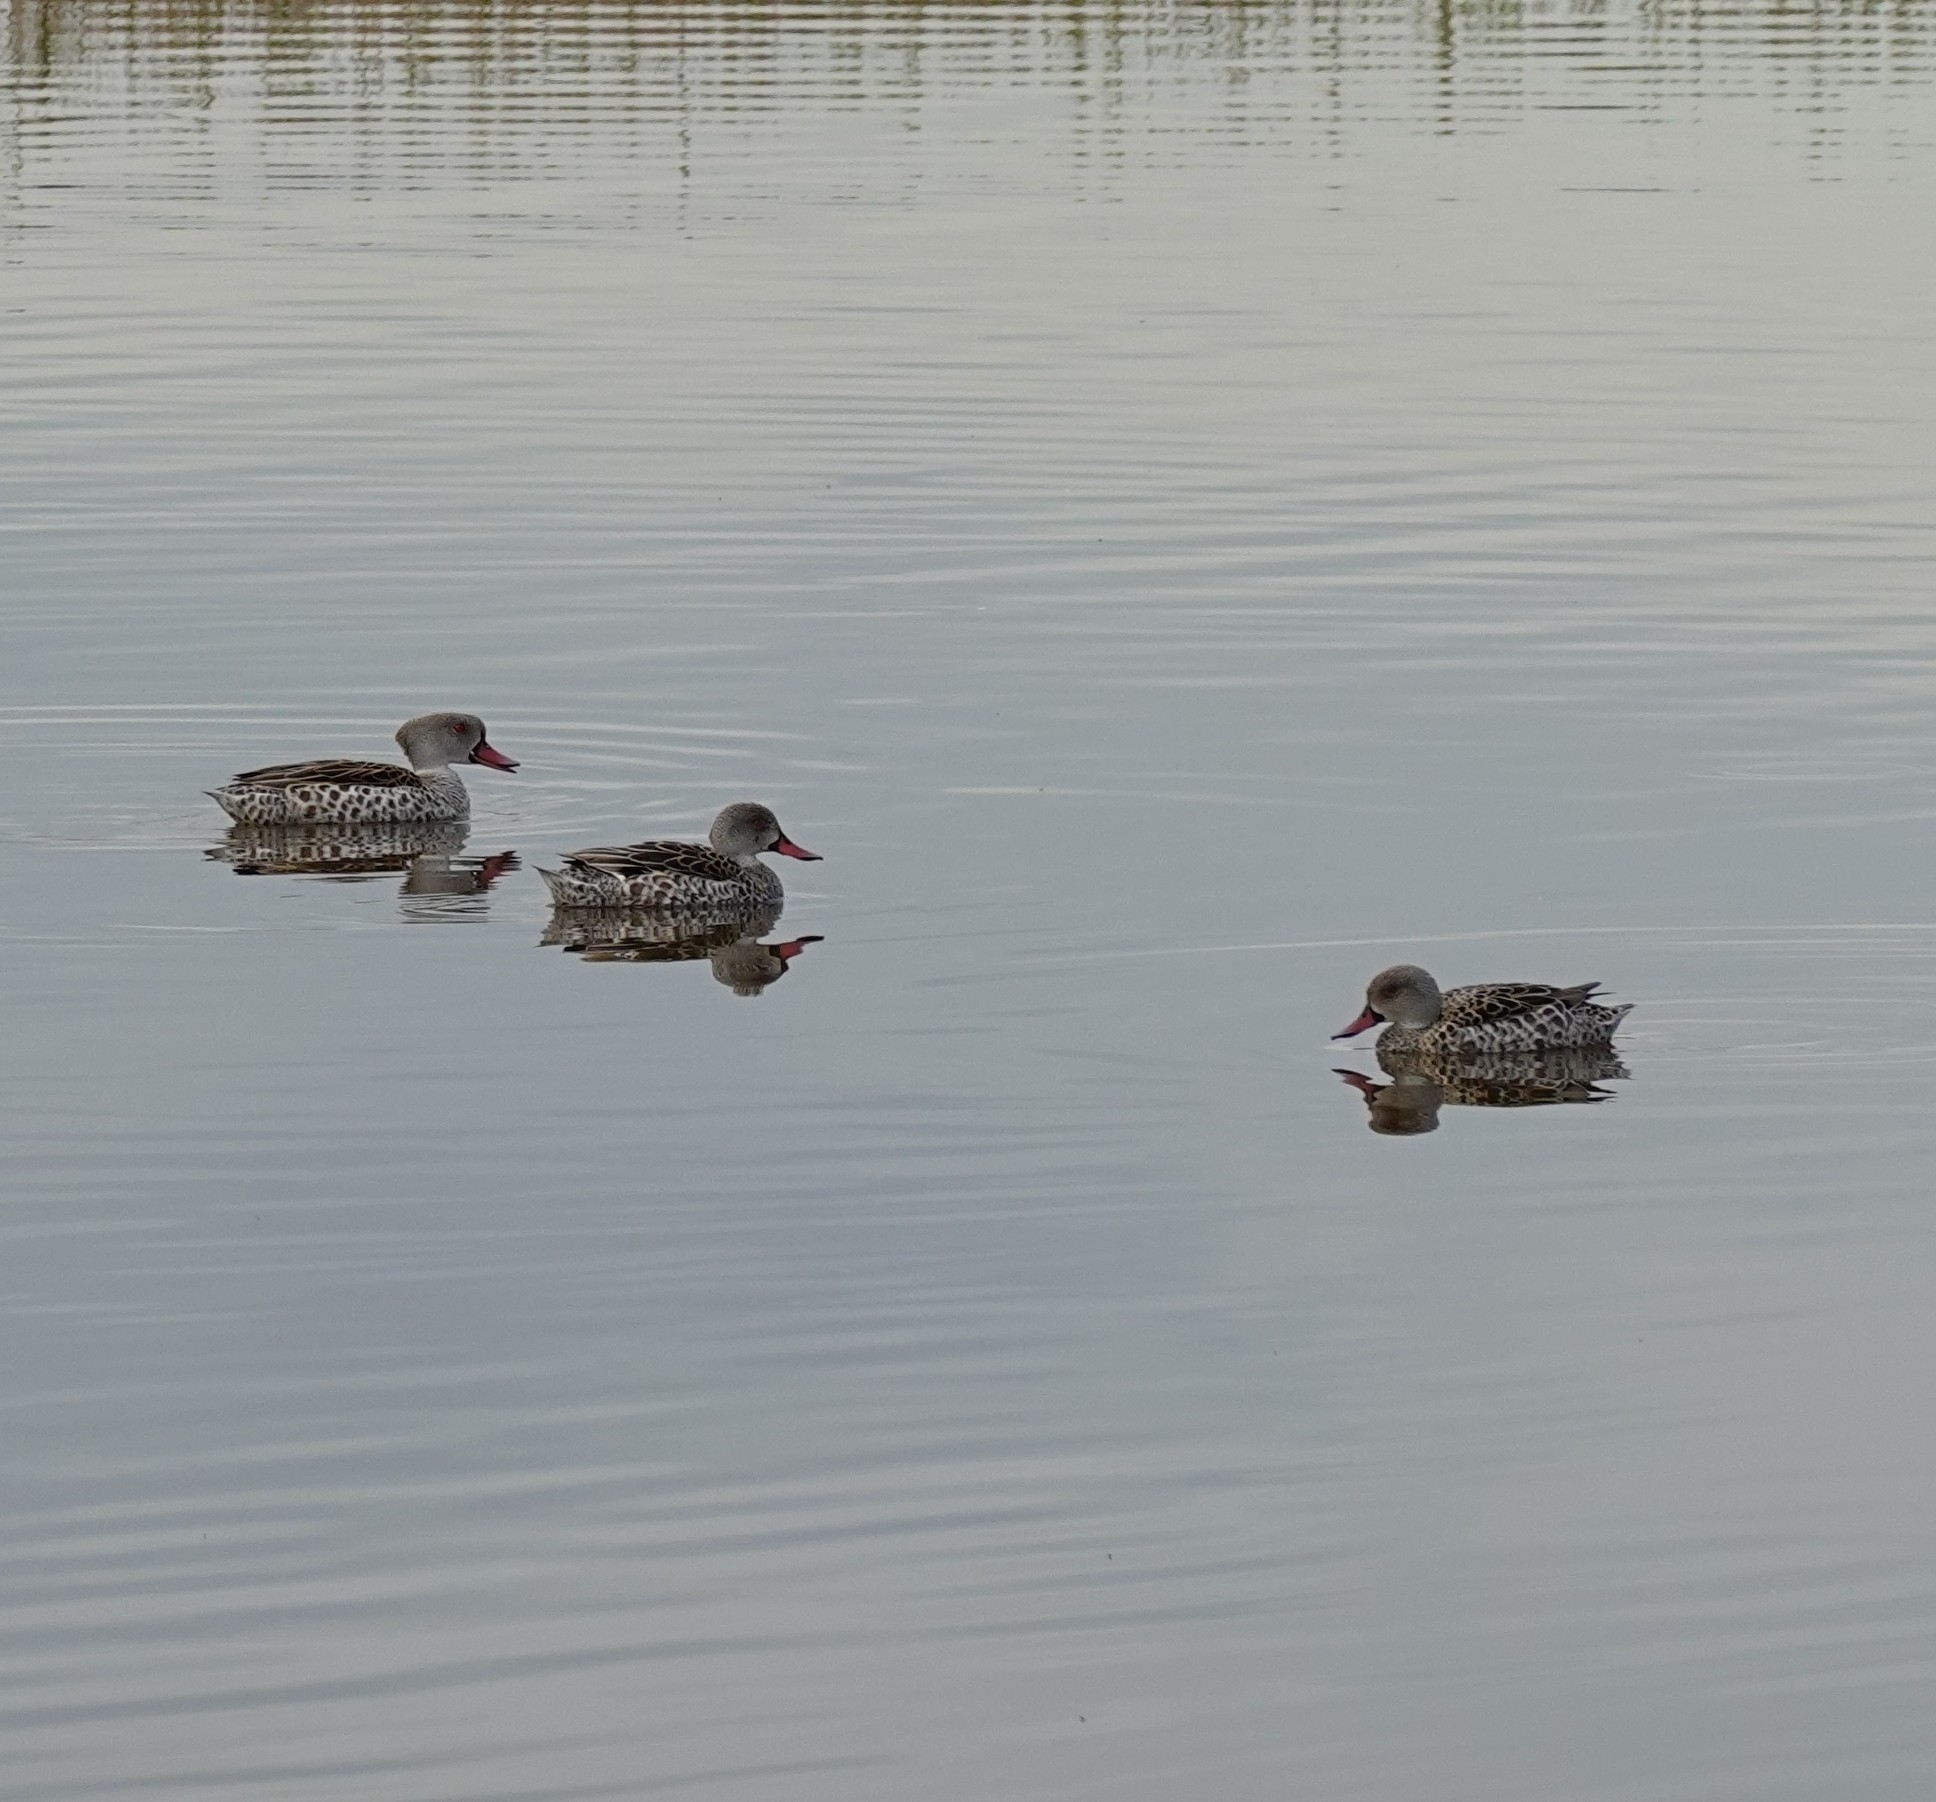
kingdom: Animalia
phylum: Chordata
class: Aves
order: Anseriformes
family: Anatidae
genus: Anas
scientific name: Anas capensis
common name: Cape teal
